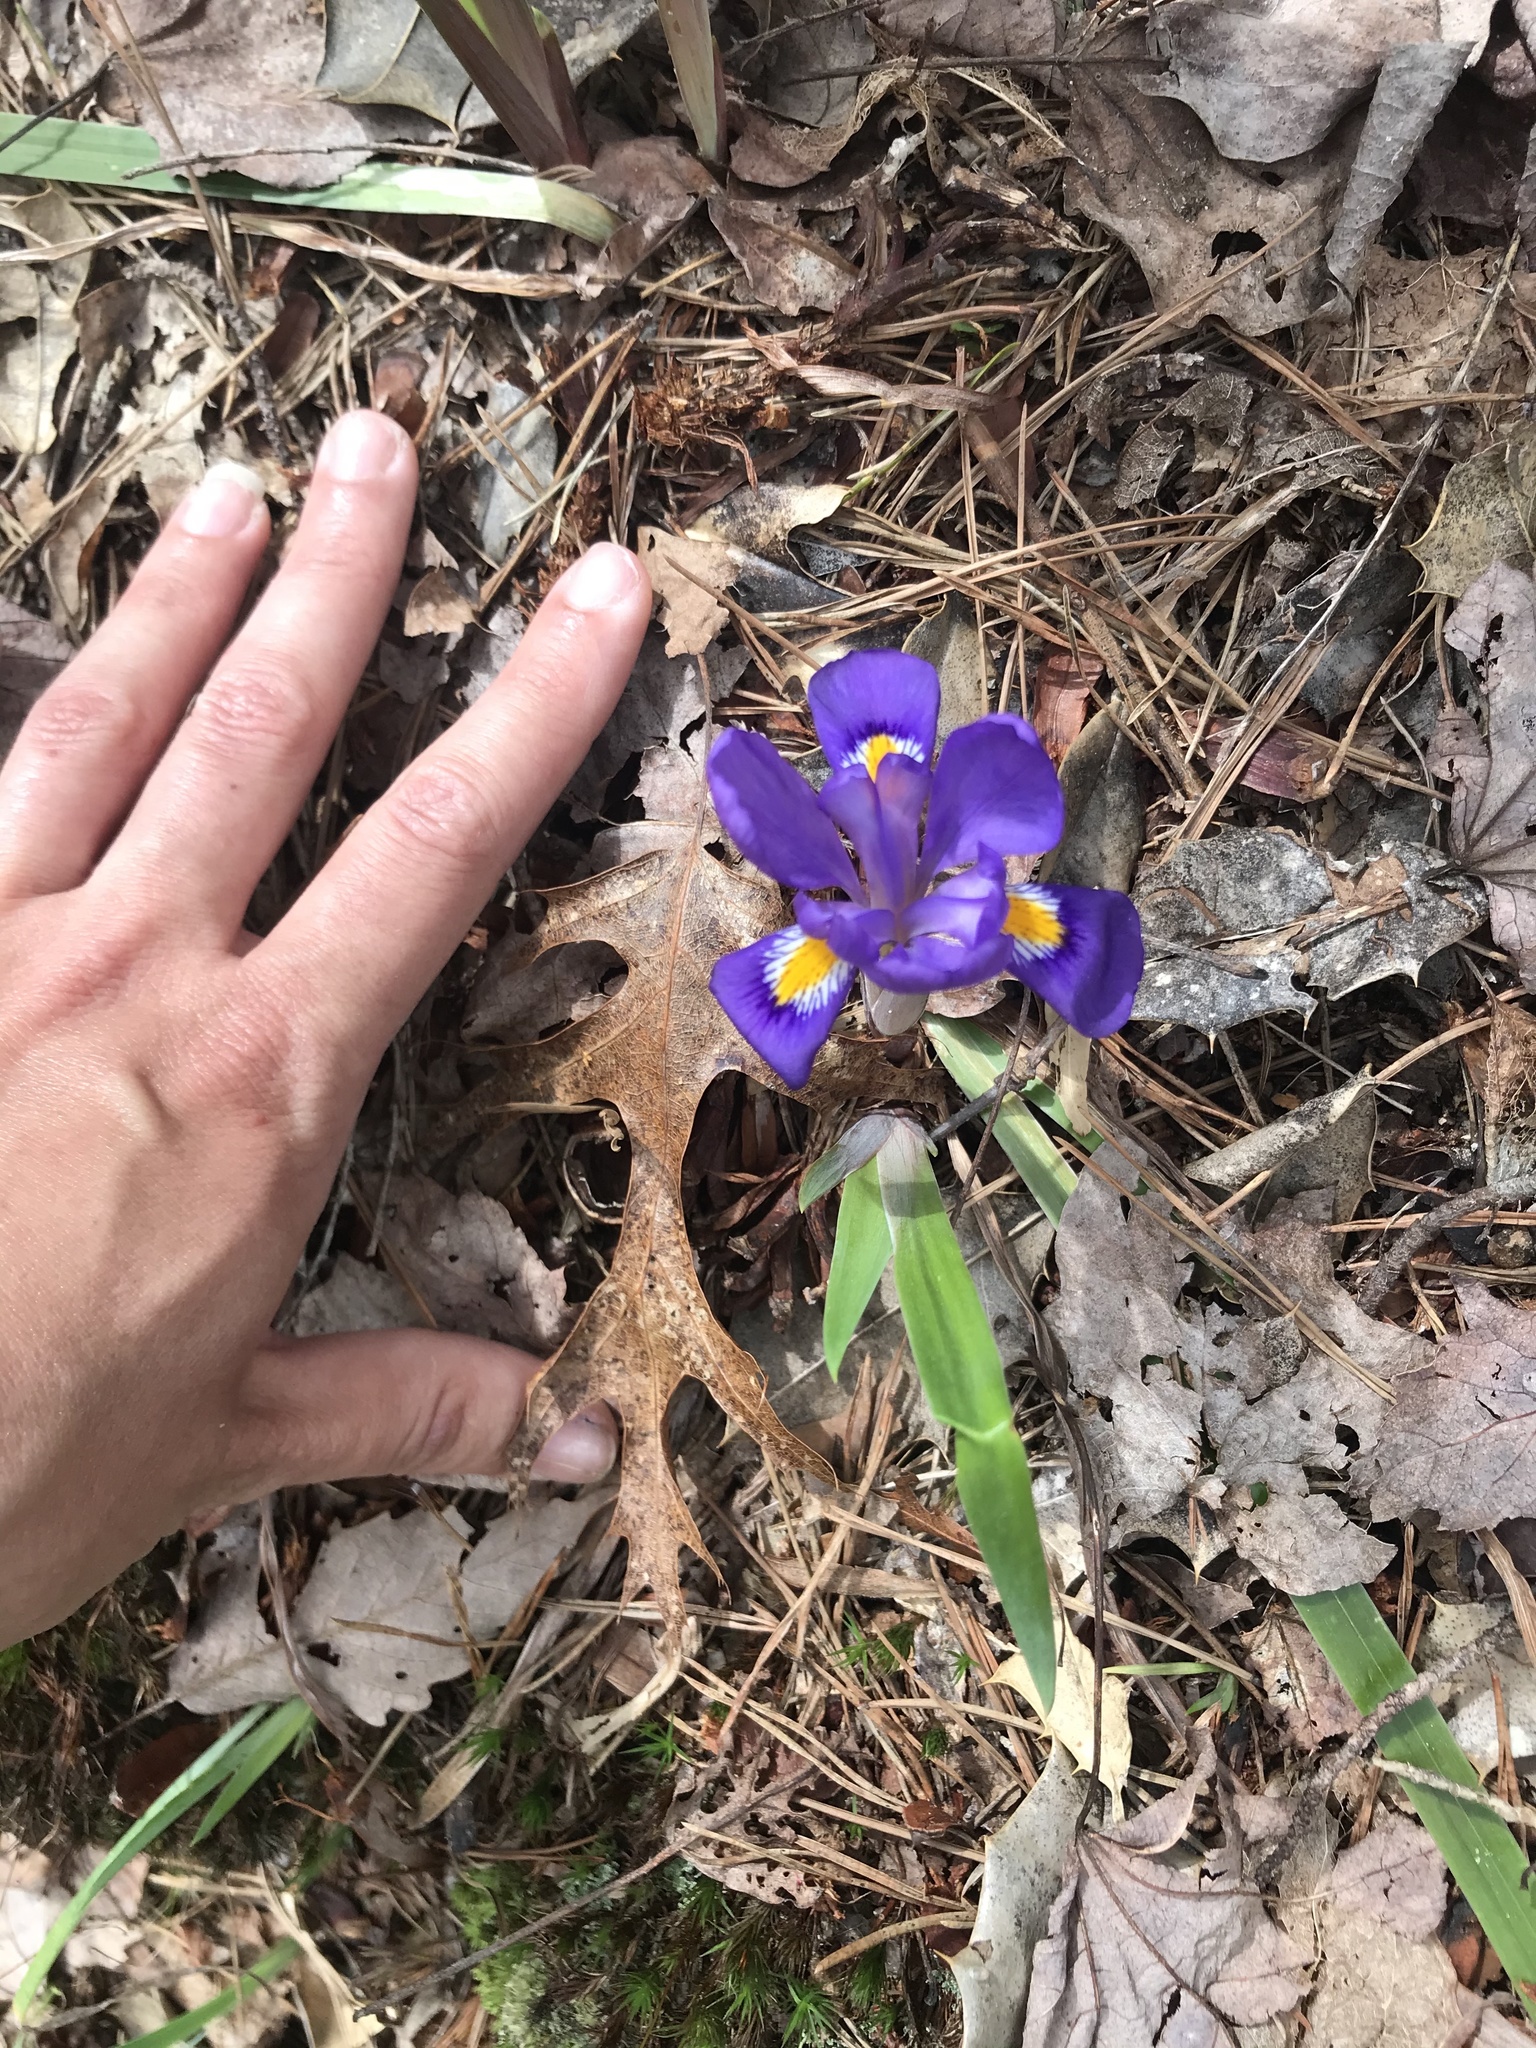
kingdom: Plantae
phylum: Tracheophyta
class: Liliopsida
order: Asparagales
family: Iridaceae
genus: Iris
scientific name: Iris verna
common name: Dwarf iris
